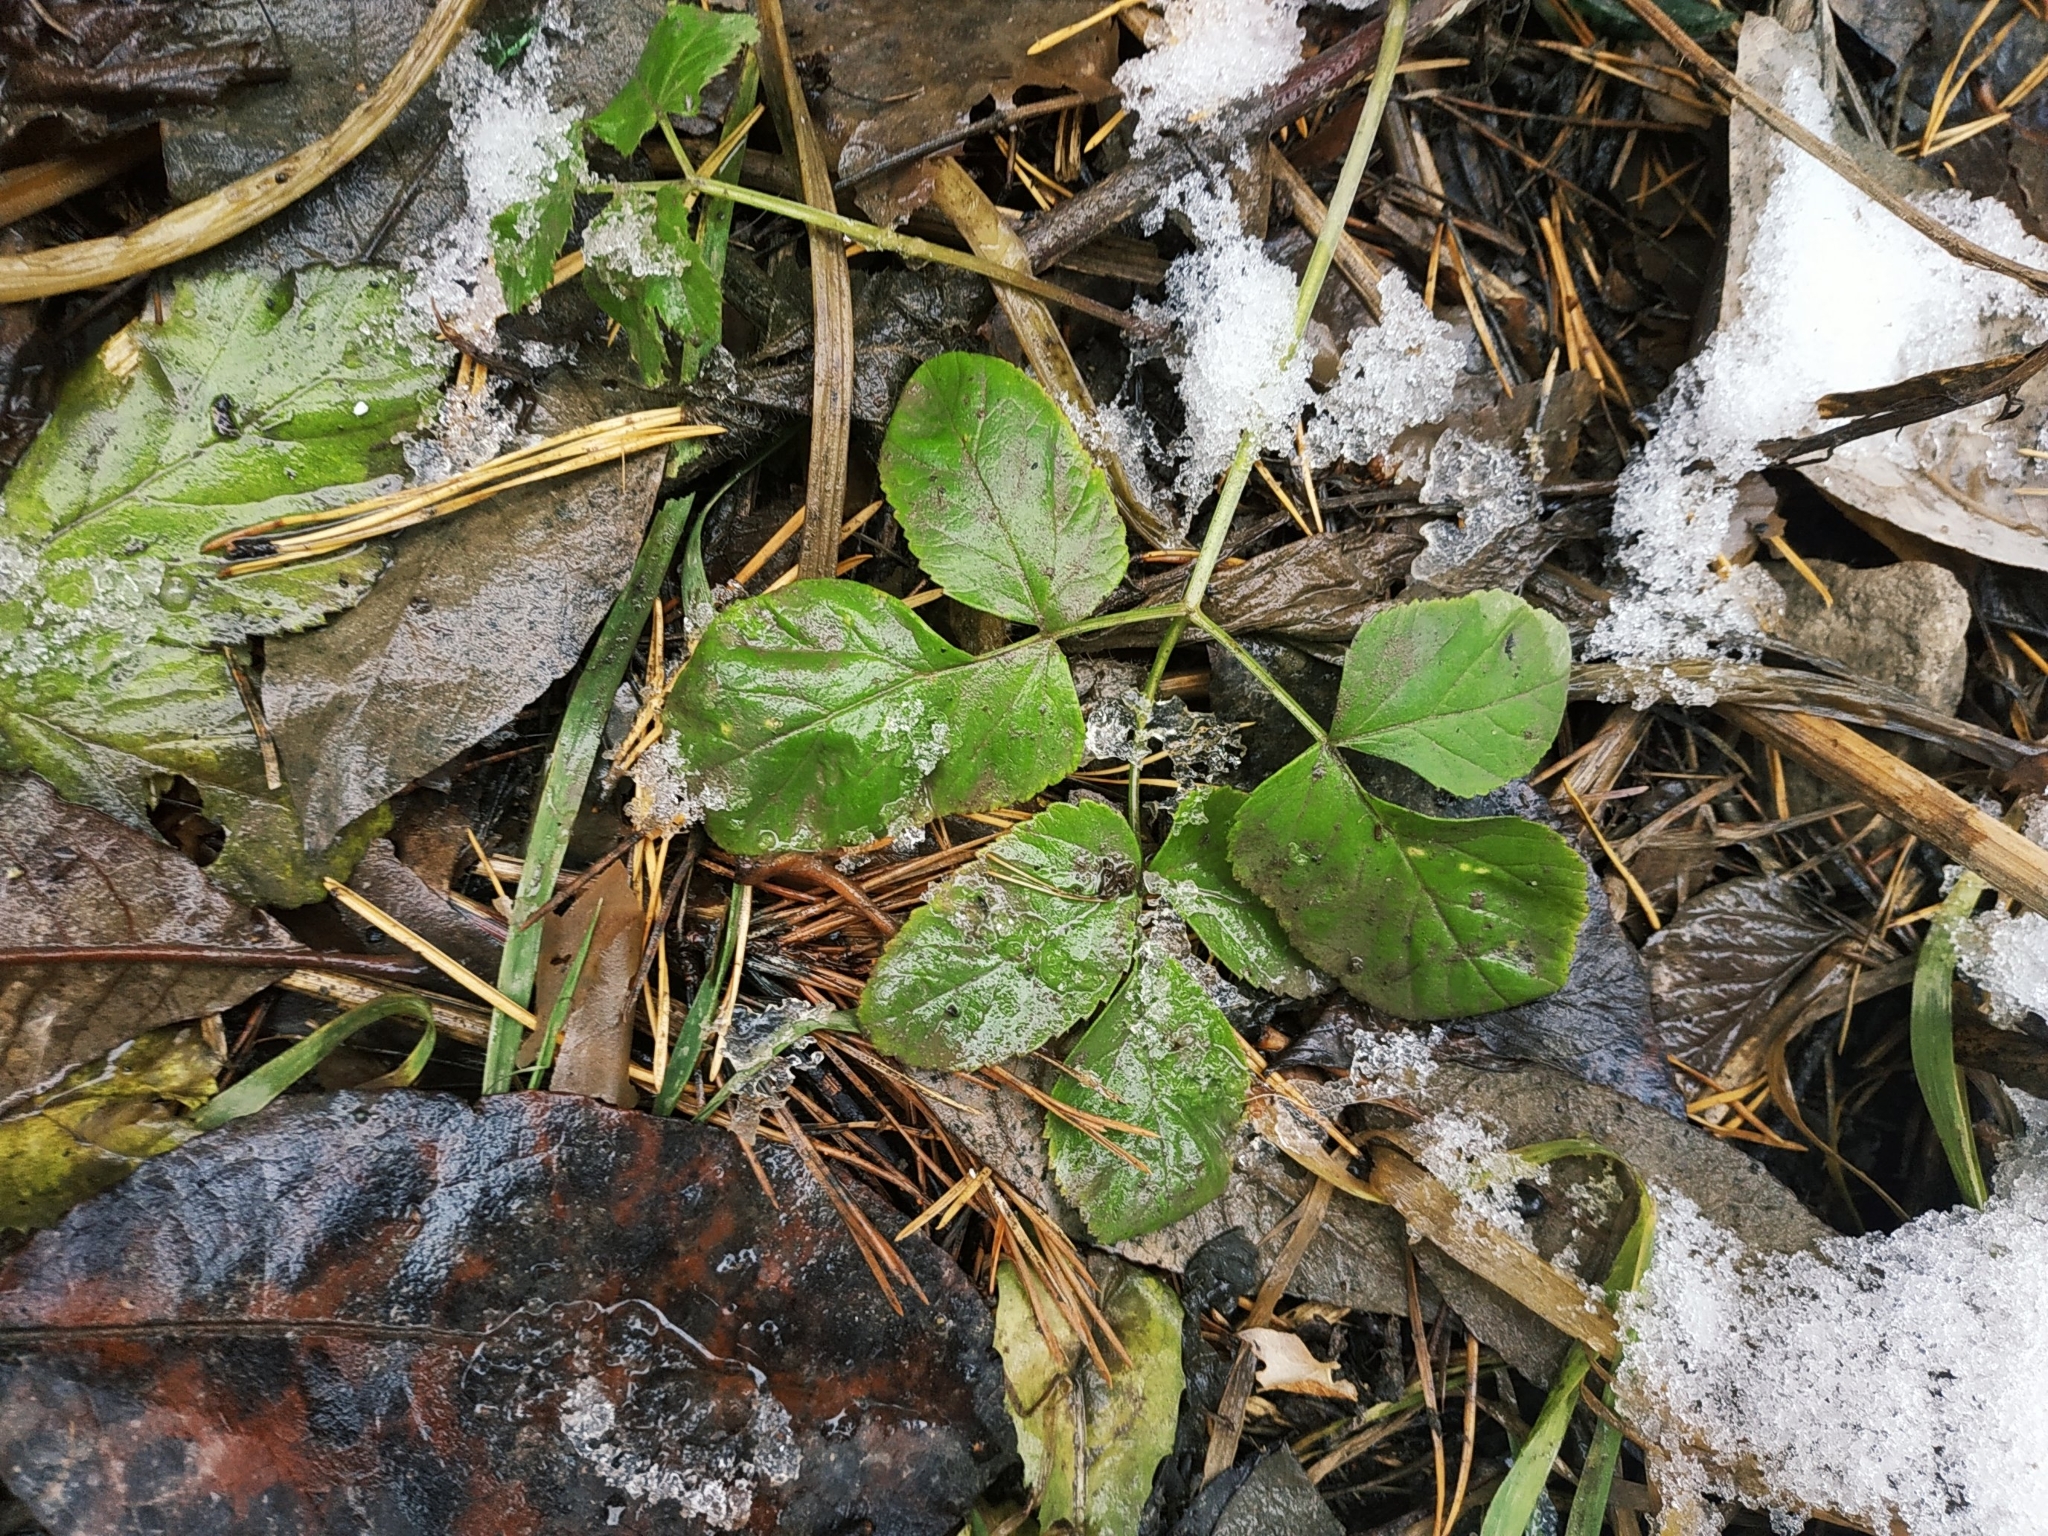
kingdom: Plantae
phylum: Tracheophyta
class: Magnoliopsida
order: Apiales
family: Apiaceae
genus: Aegopodium
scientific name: Aegopodium podagraria
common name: Ground-elder
